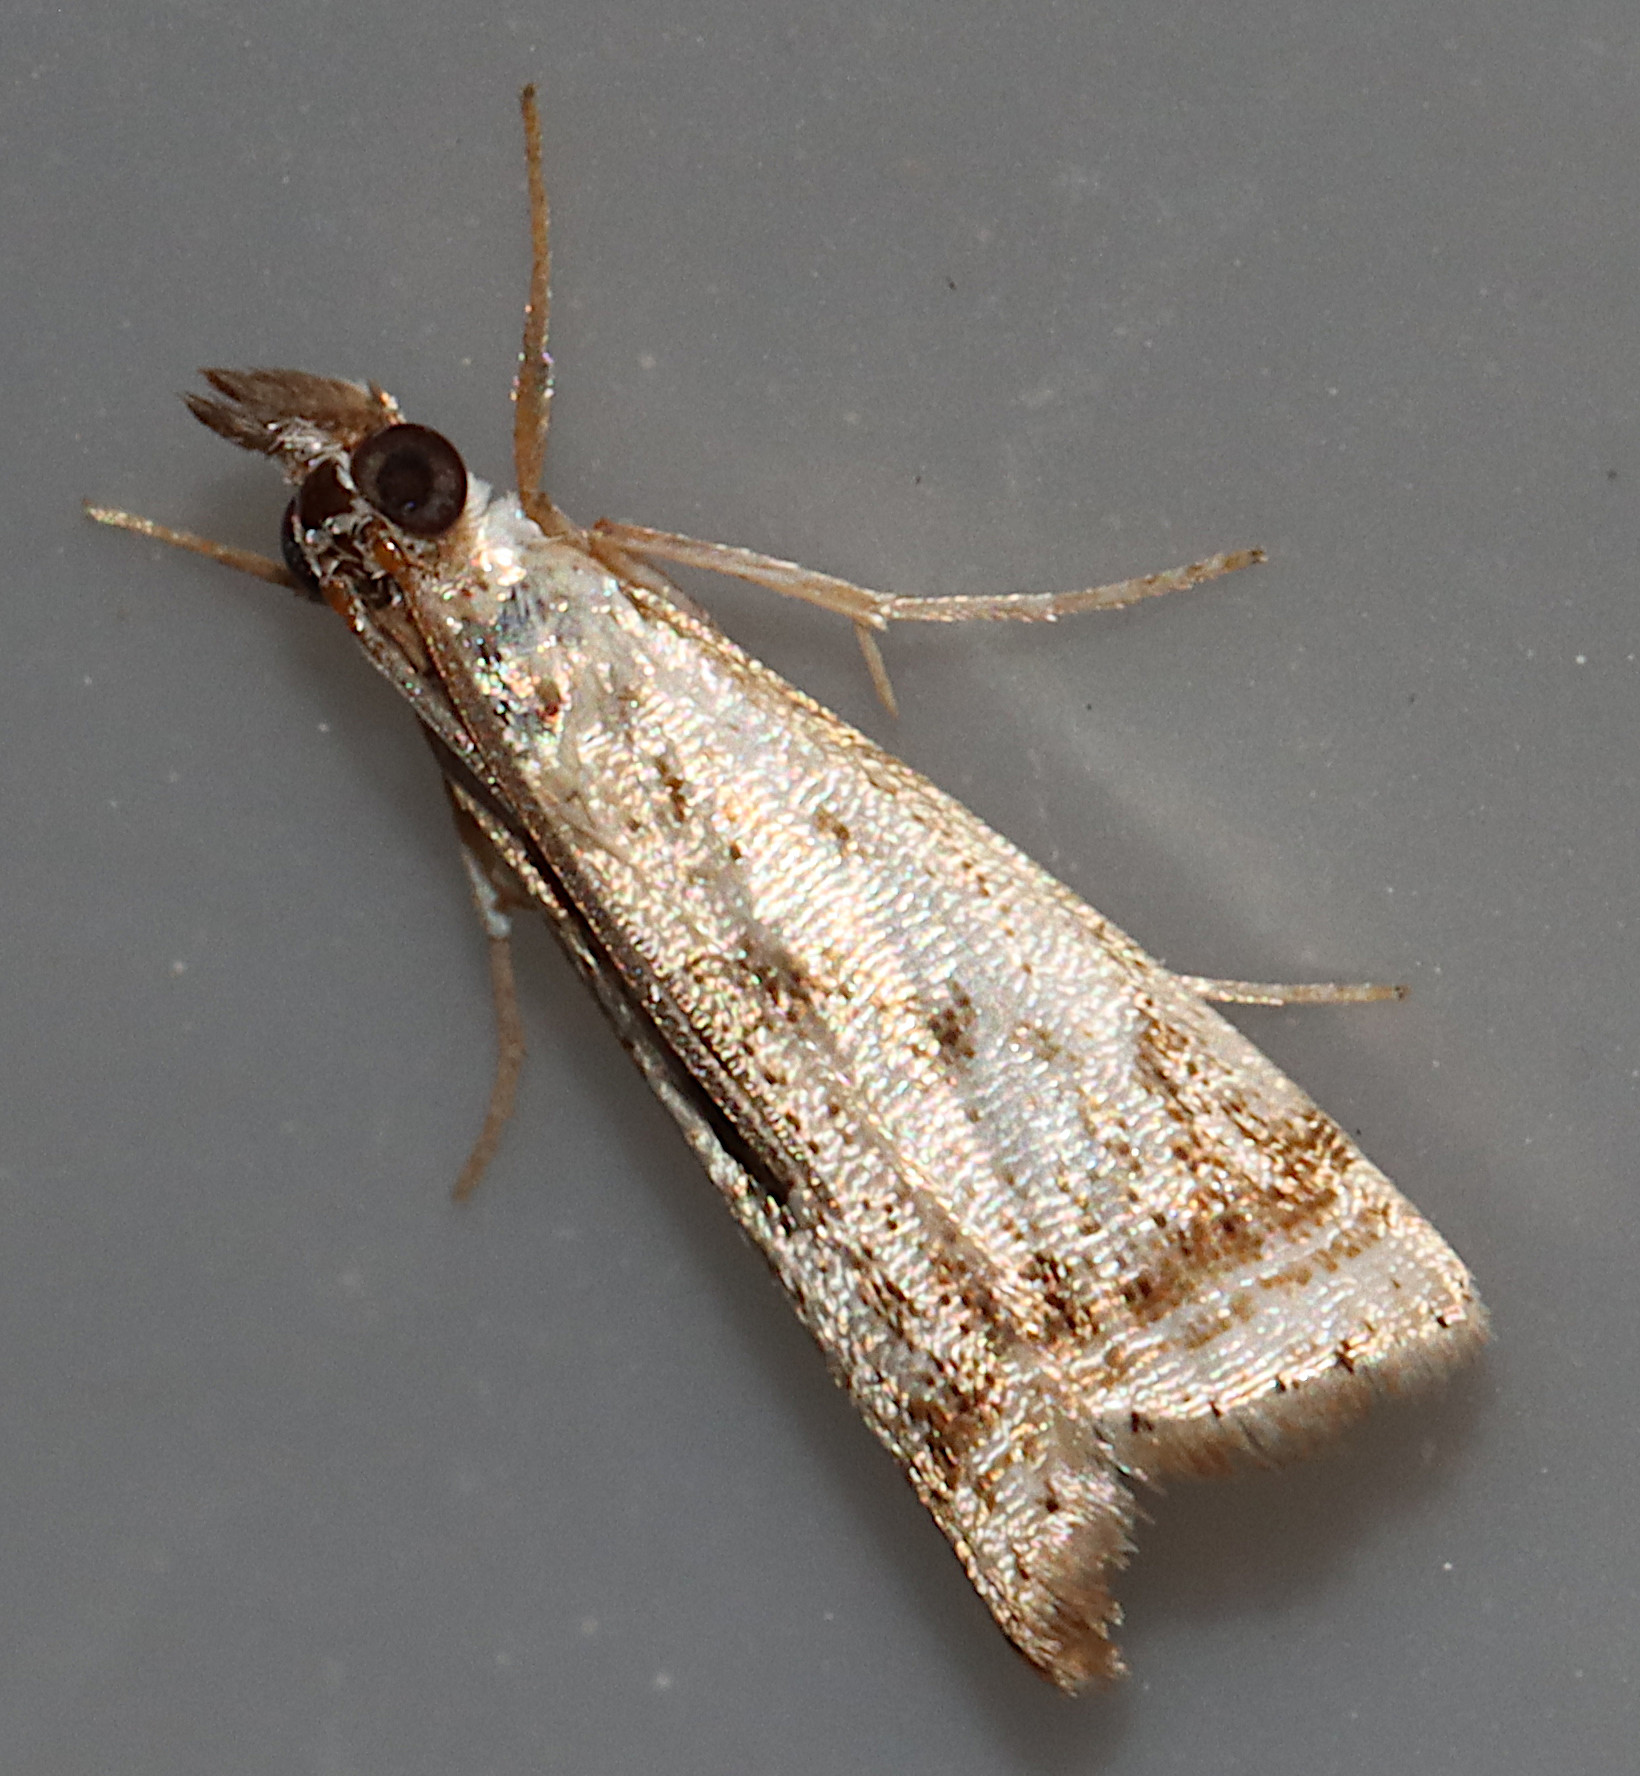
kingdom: Animalia
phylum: Arthropoda
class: Insecta
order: Lepidoptera
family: Crambidae
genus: Microcrambus
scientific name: Microcrambus elegans
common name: Elegant grass-veneer
